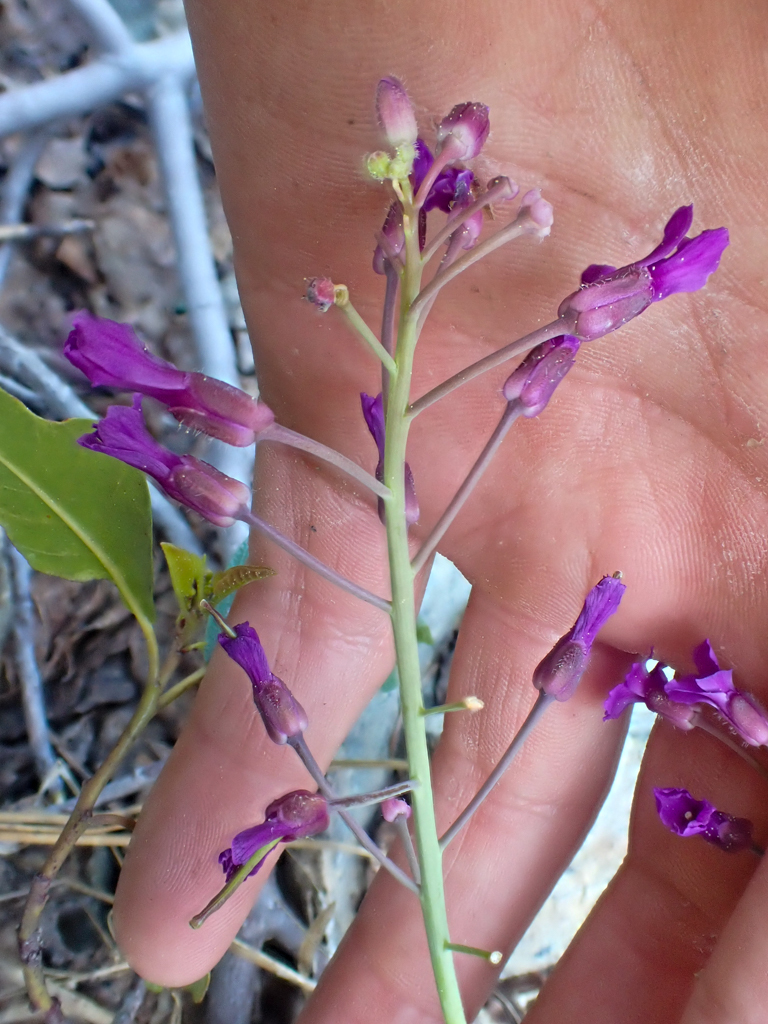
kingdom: Plantae
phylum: Tracheophyta
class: Magnoliopsida
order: Brassicales
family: Brassicaceae
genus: Boechera
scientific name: Boechera koehleri
